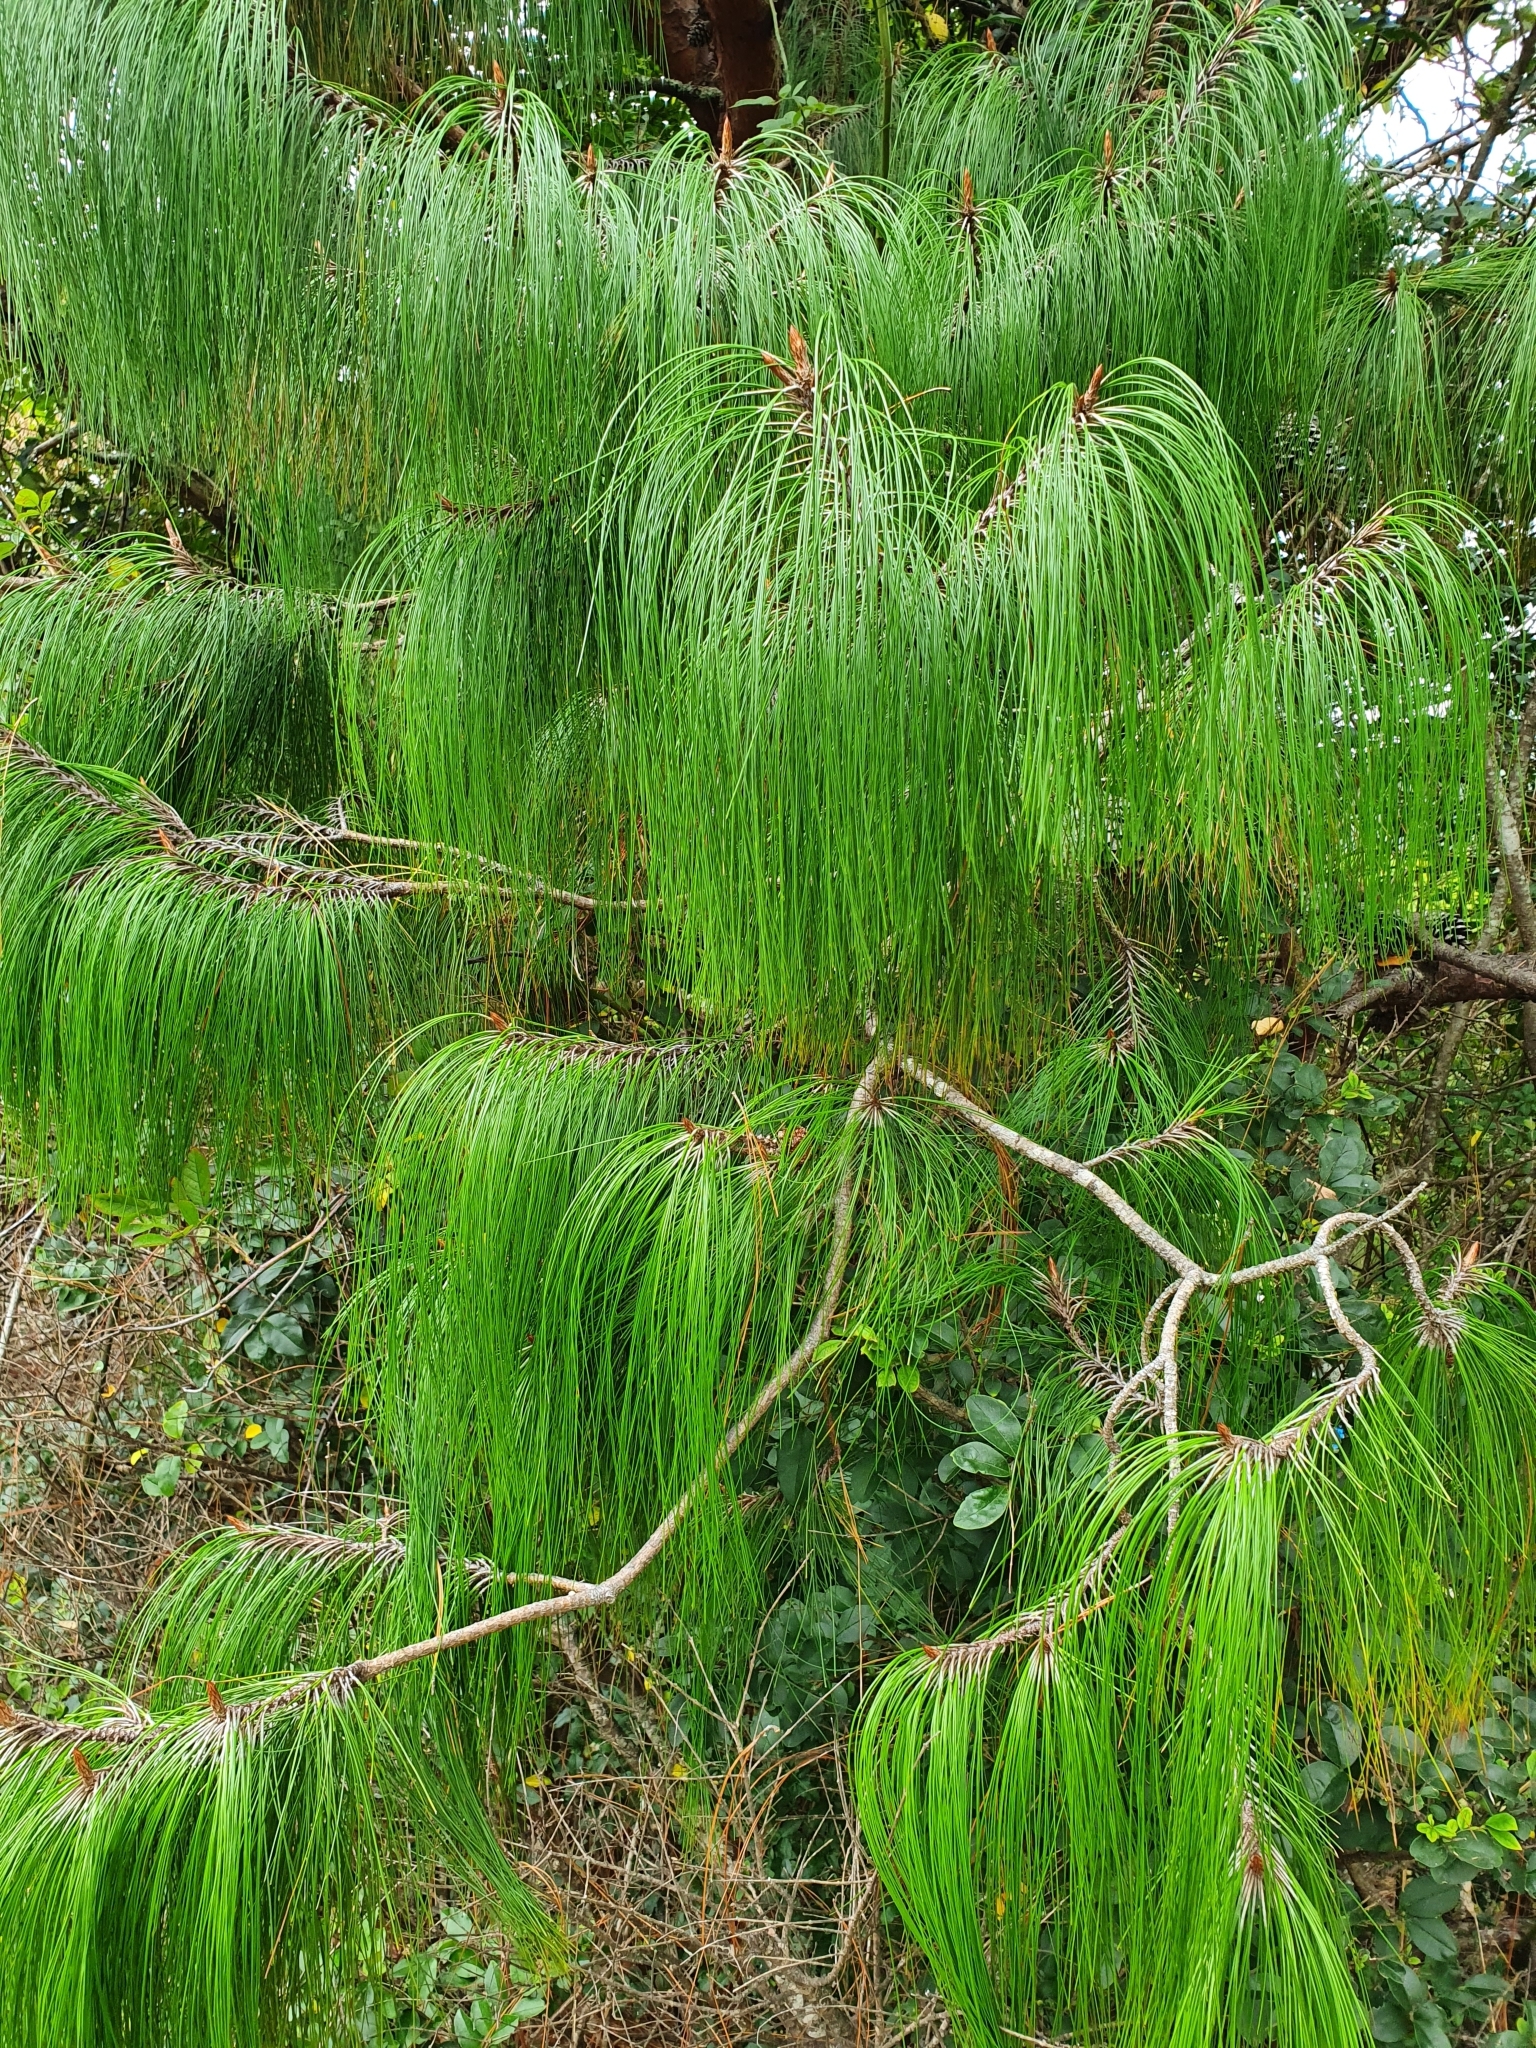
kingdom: Plantae
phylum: Tracheophyta
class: Pinopsida
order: Pinales
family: Pinaceae
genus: Pinus
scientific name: Pinus patula
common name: Mexican weeping pine
